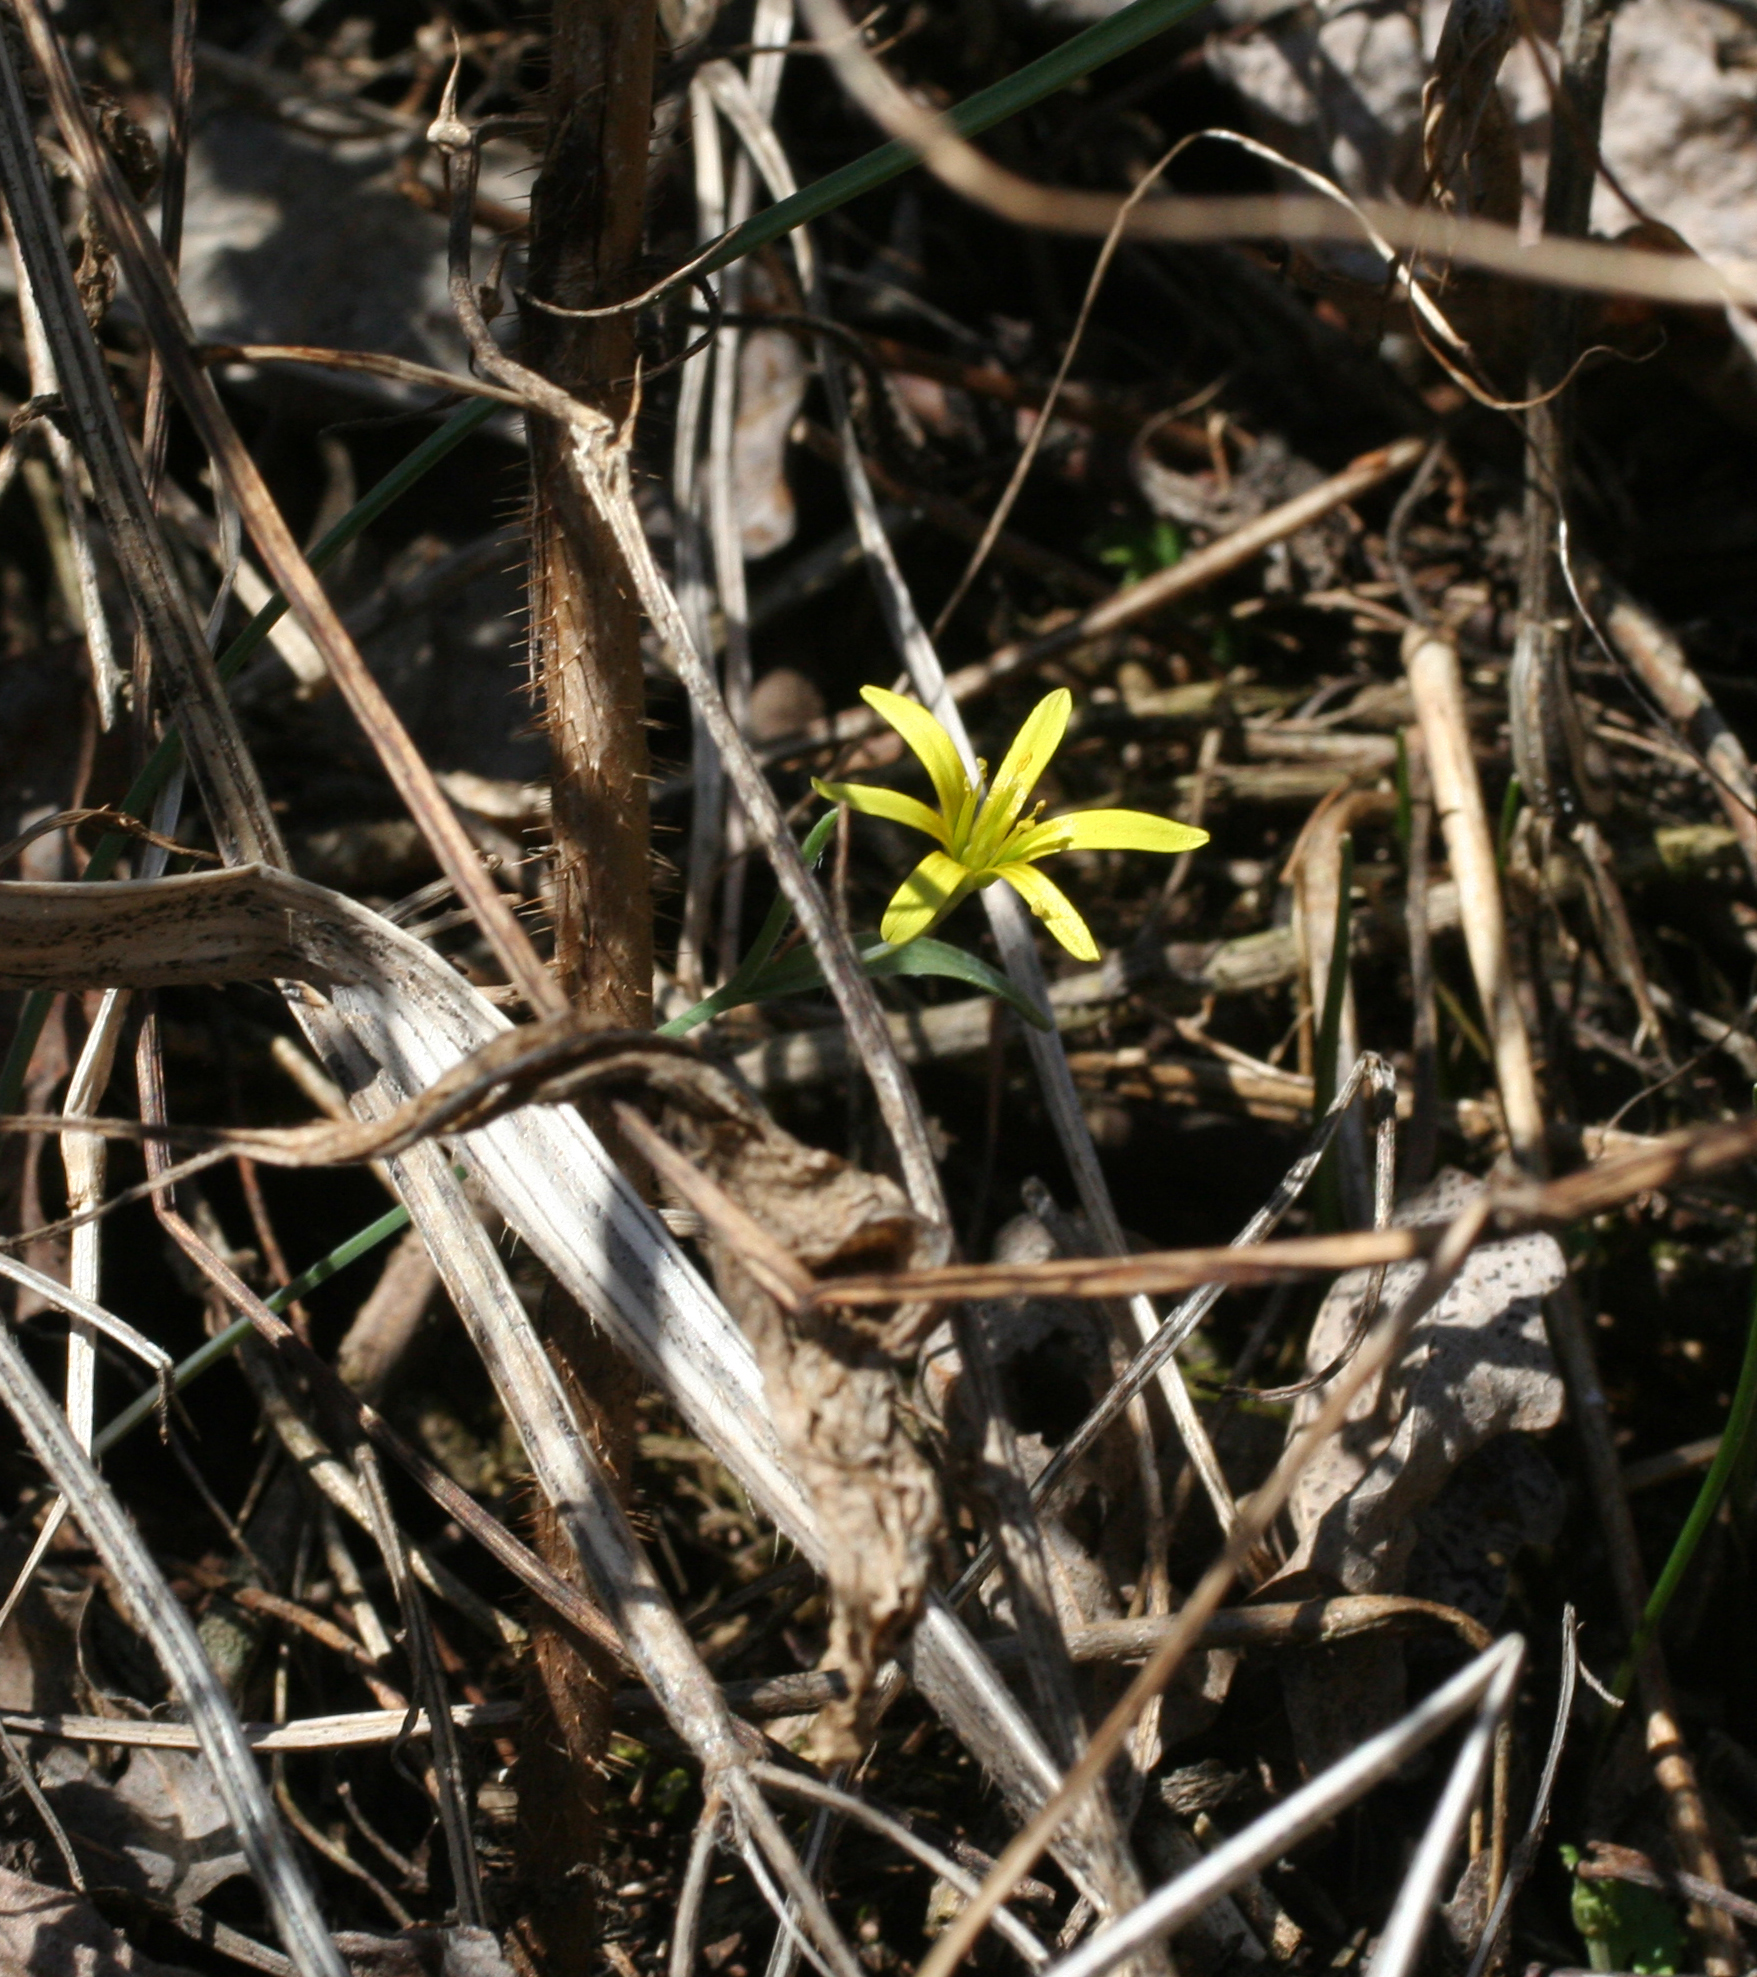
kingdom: Plantae
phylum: Tracheophyta
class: Liliopsida
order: Liliales
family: Liliaceae
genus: Gagea
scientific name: Gagea fedtschenkoana
